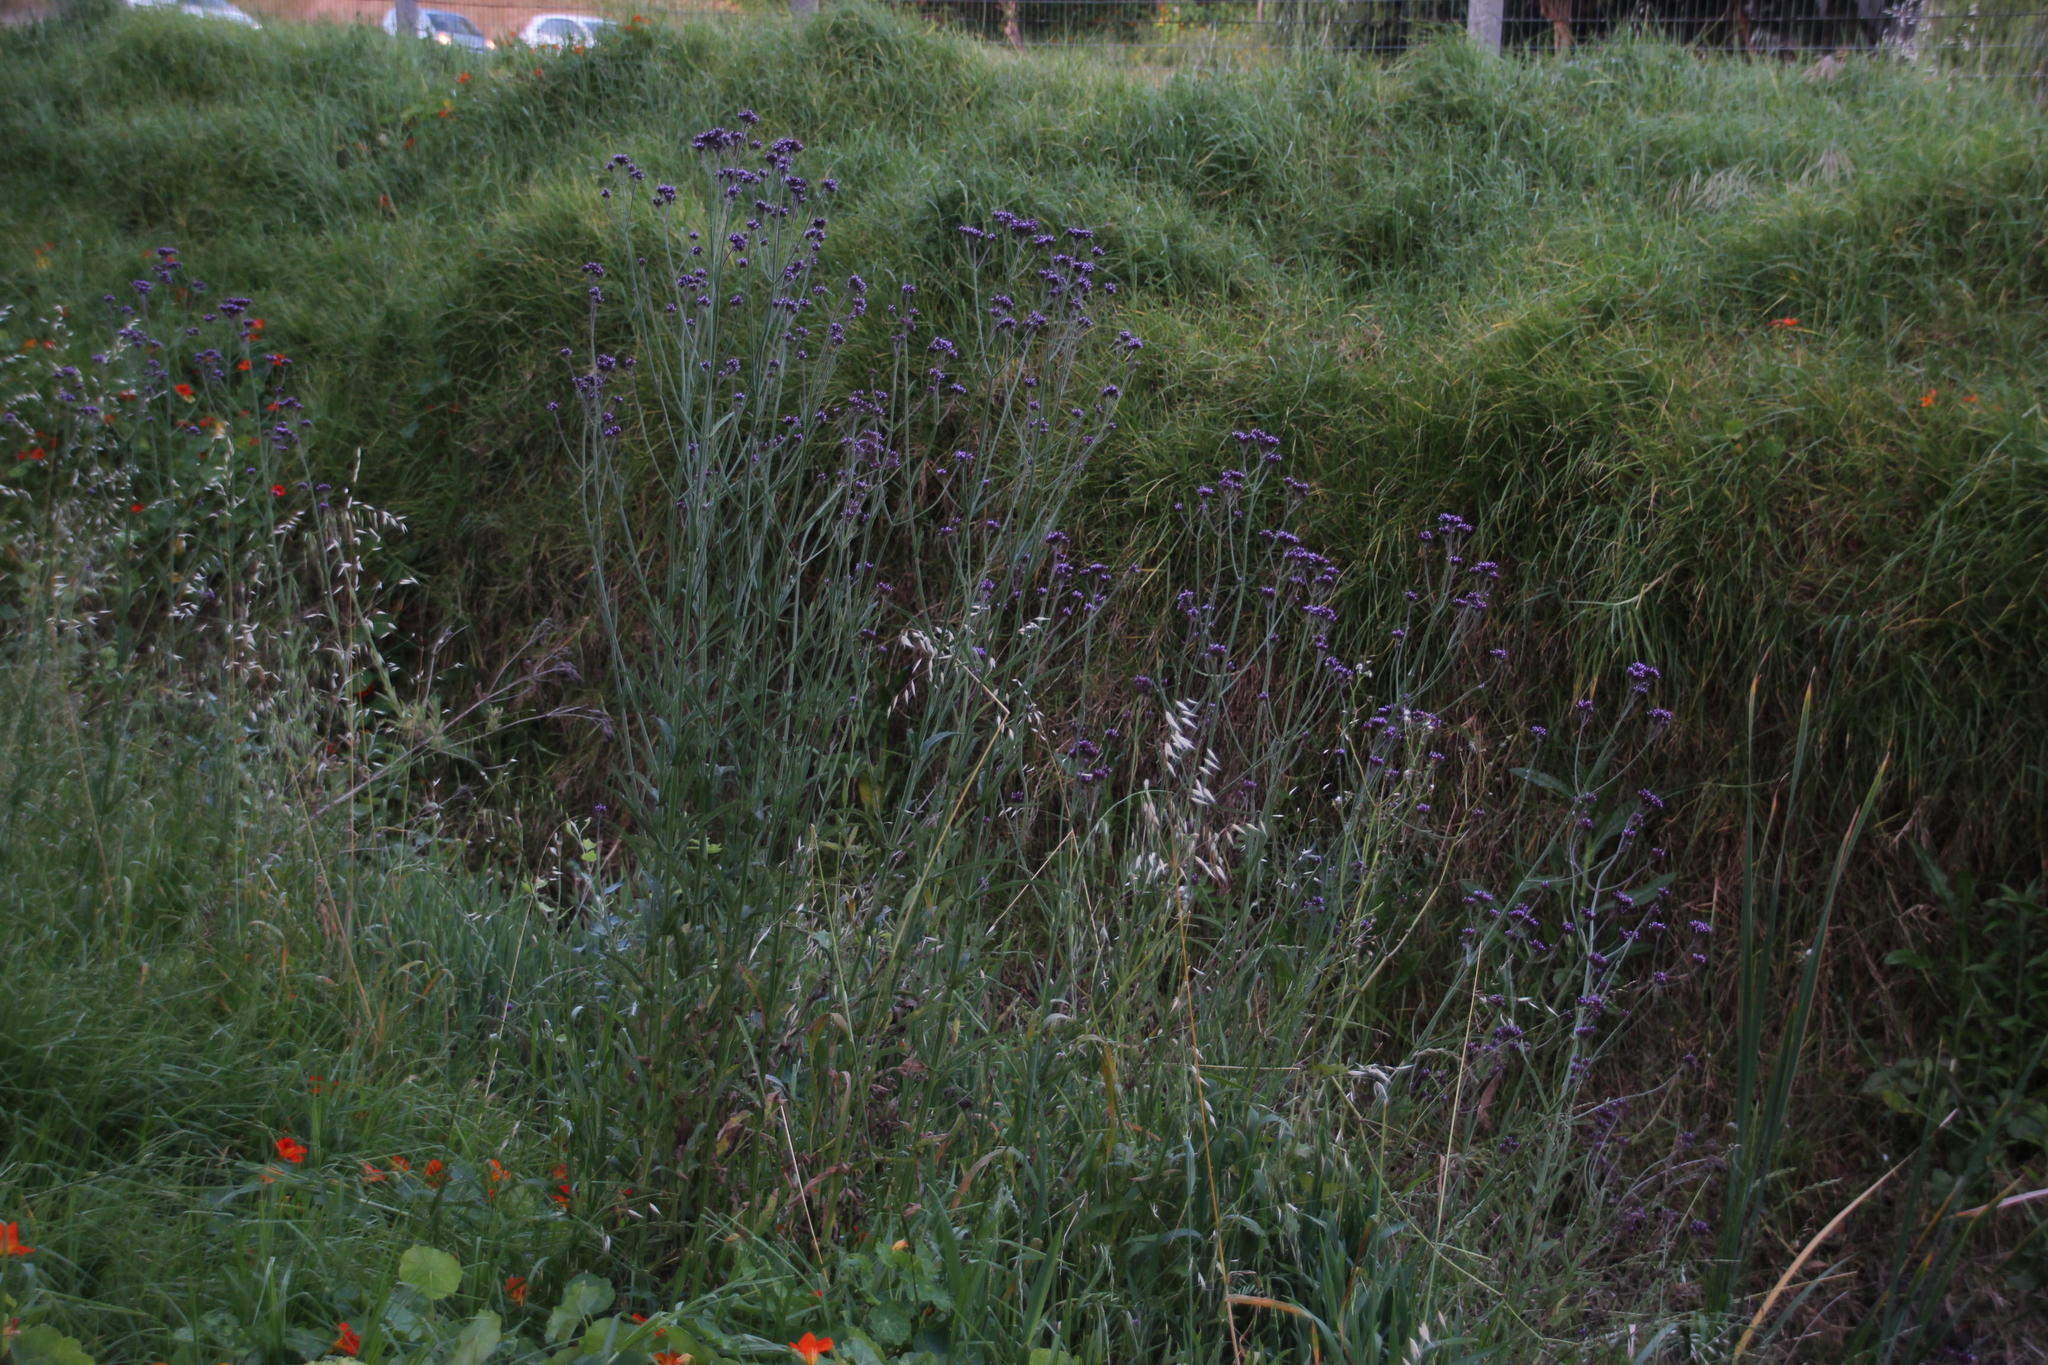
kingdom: Plantae
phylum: Tracheophyta
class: Magnoliopsida
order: Lamiales
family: Verbenaceae
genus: Verbena
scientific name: Verbena bonariensis
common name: Purpletop vervain
